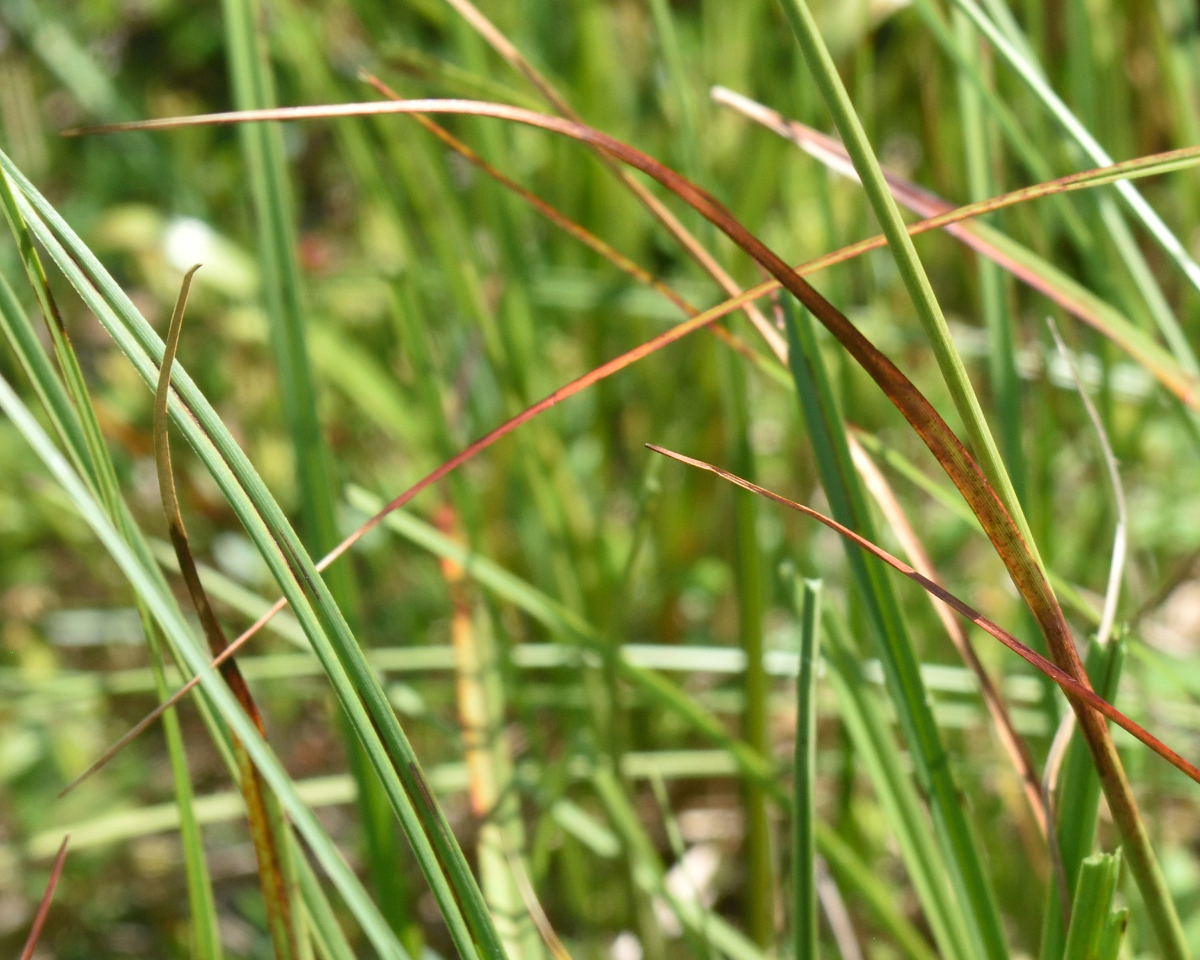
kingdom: Plantae
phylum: Tracheophyta
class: Liliopsida
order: Poales
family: Cyperaceae
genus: Eriophorum
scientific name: Eriophorum angustifolium
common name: Common cottongrass
